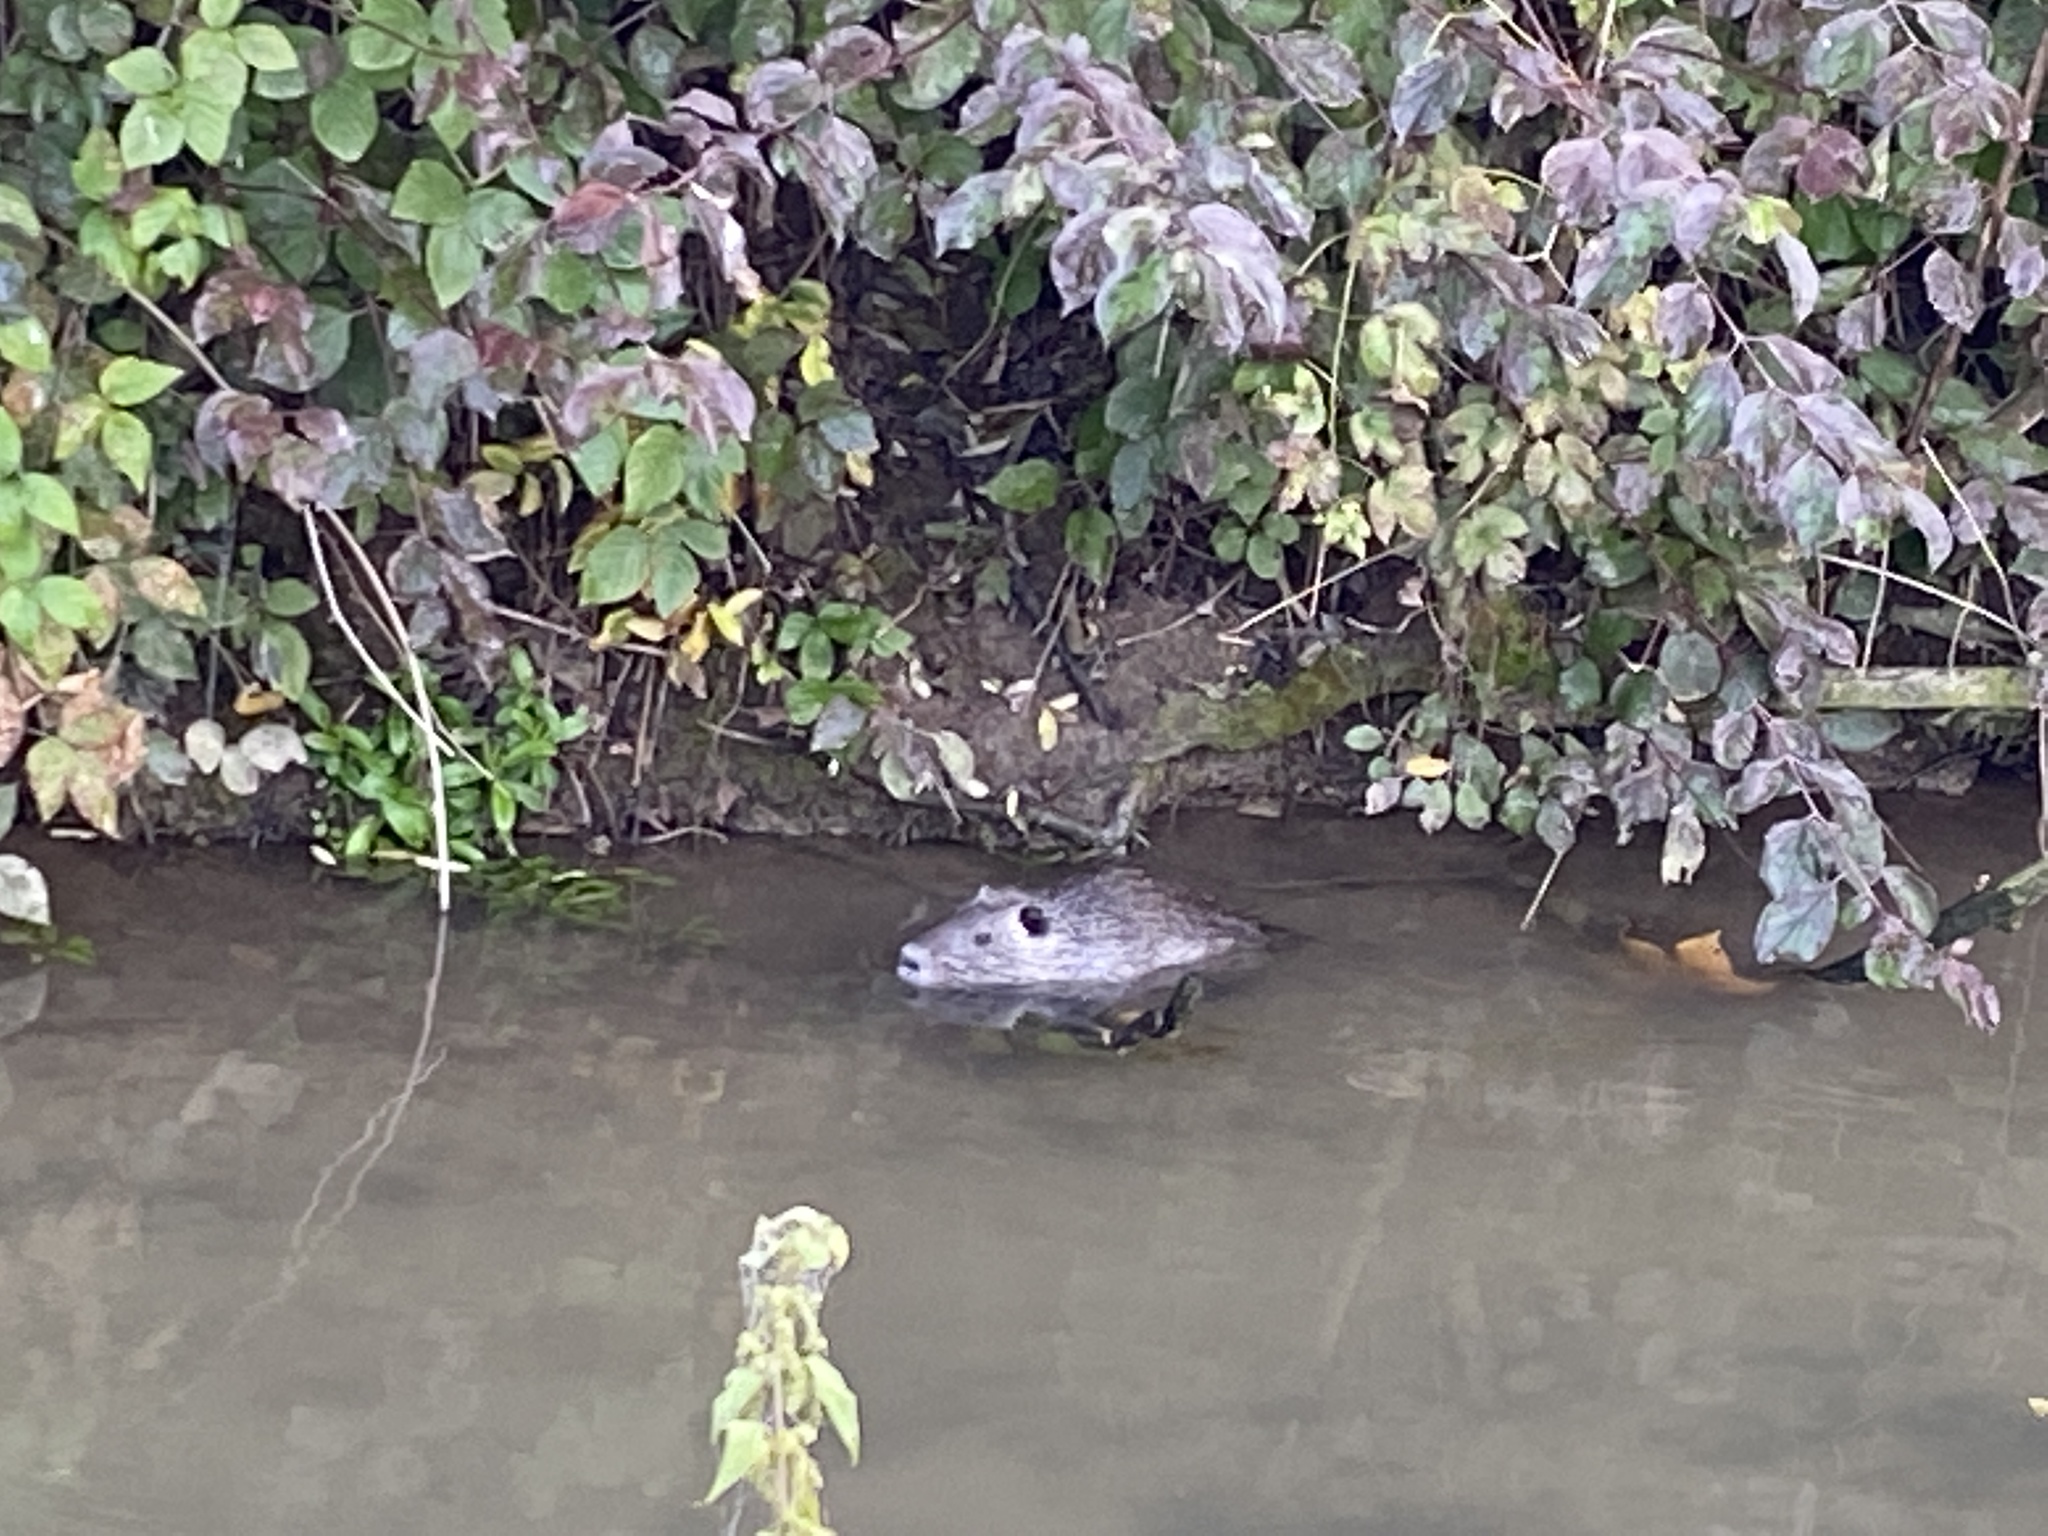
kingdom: Animalia
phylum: Chordata
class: Mammalia
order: Rodentia
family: Myocastoridae
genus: Myocastor
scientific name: Myocastor coypus
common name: Coypu
